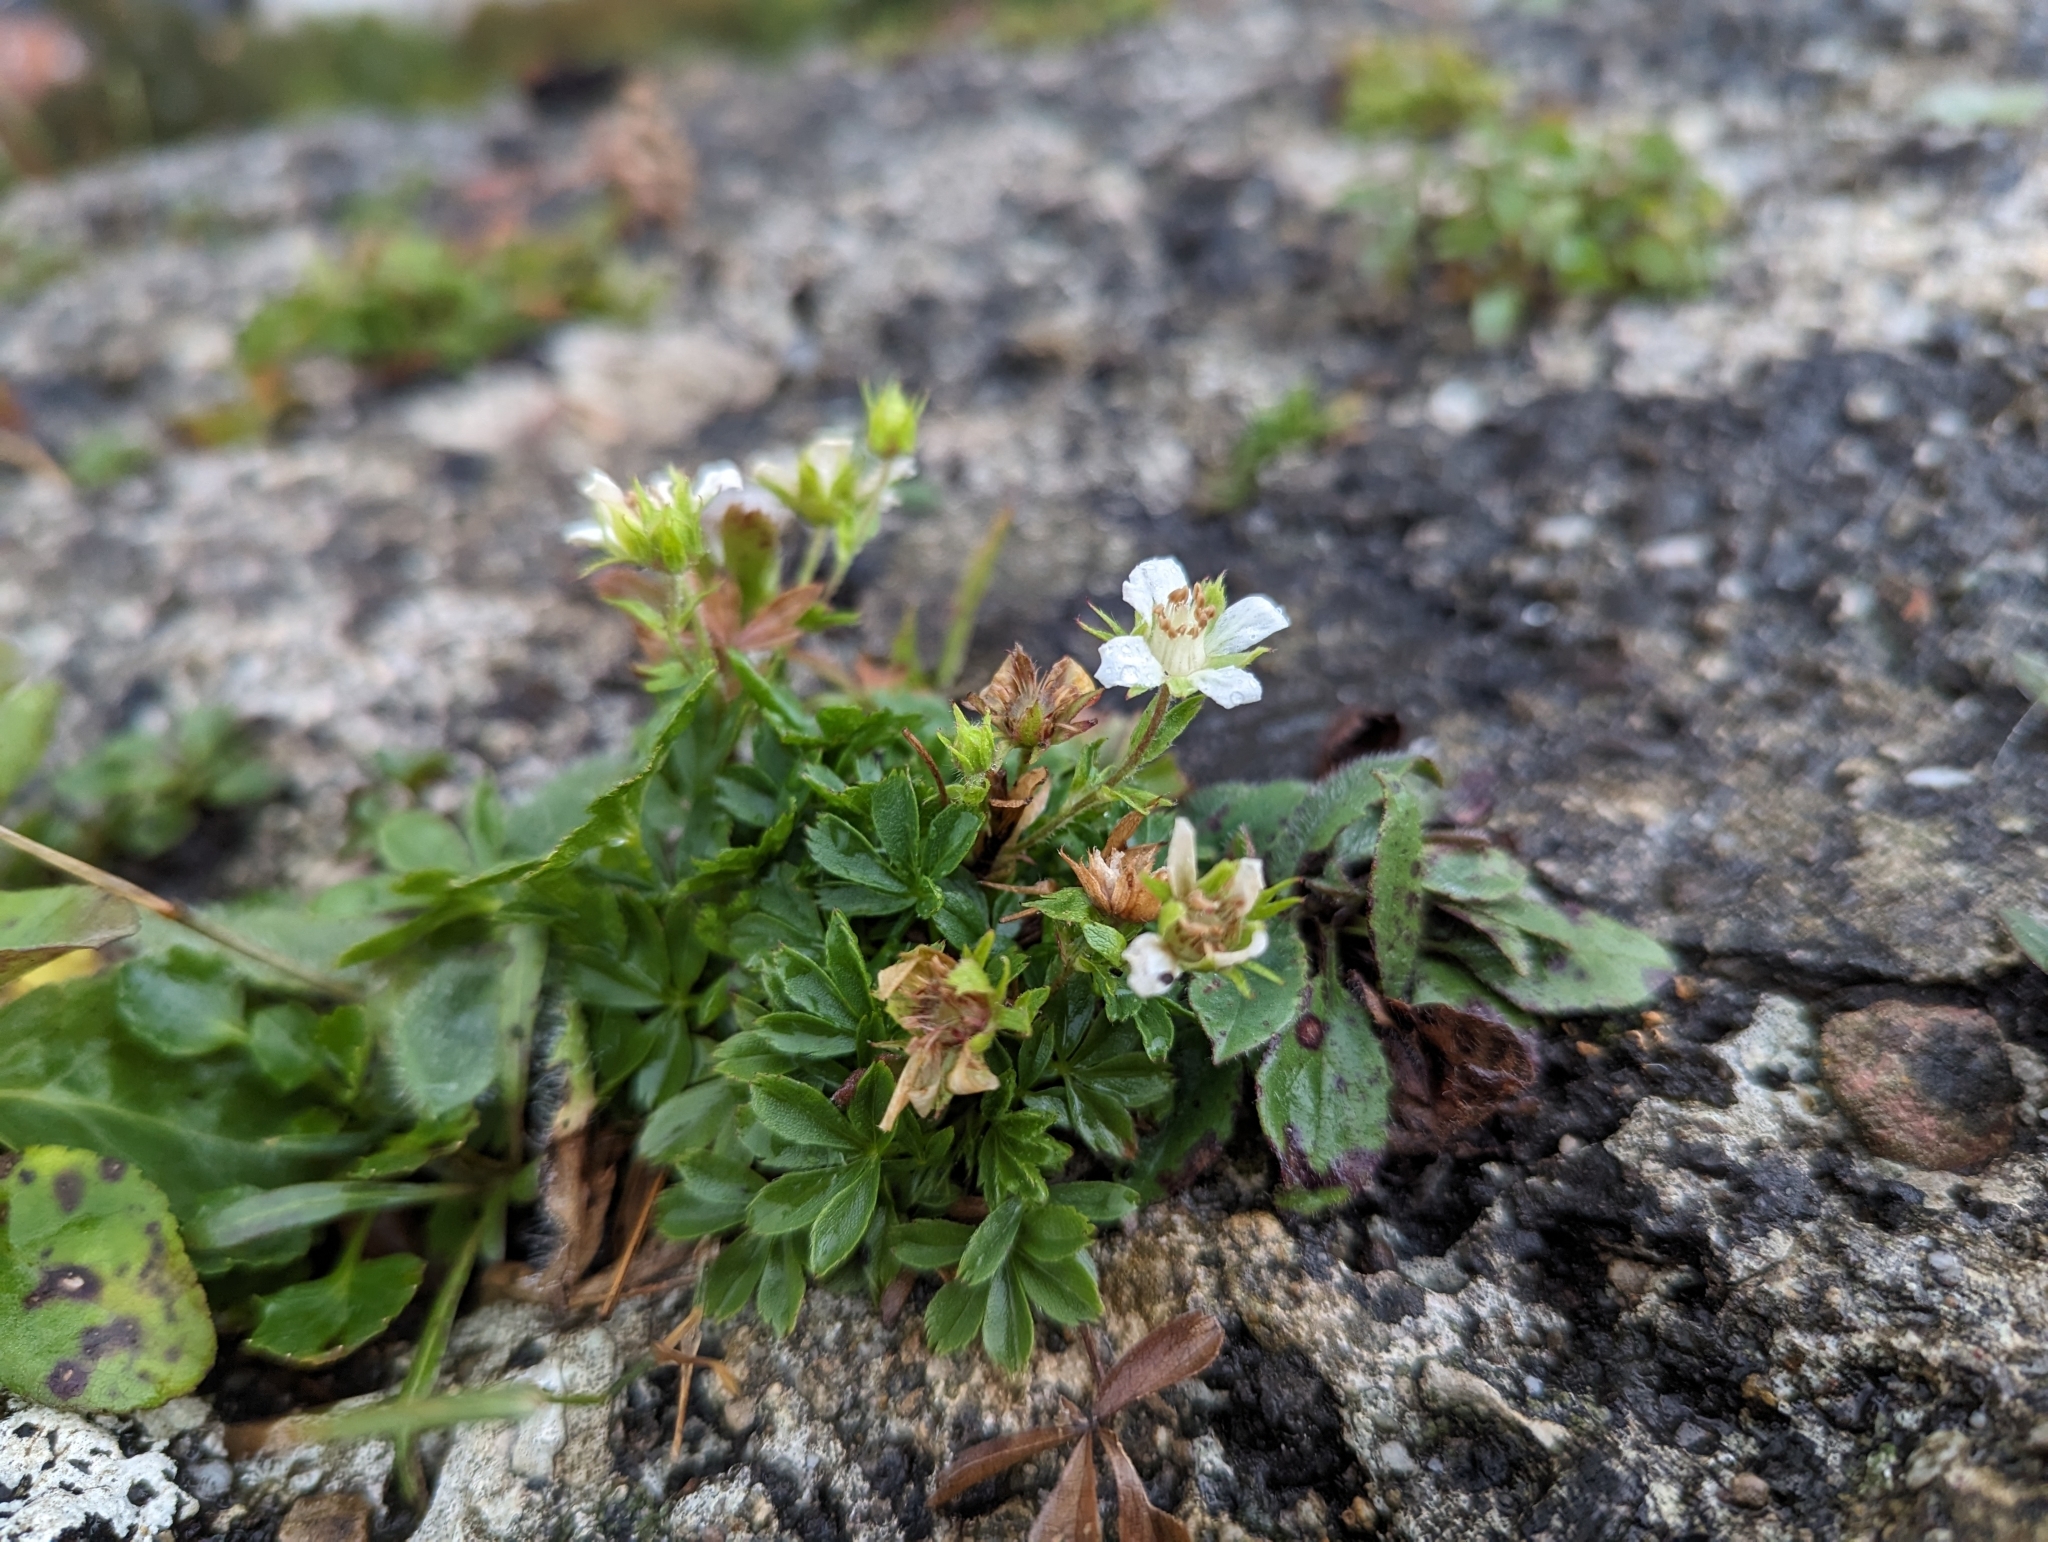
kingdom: Plantae
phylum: Tracheophyta
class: Magnoliopsida
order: Rosales
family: Rosaceae
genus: Potentilla
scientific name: Potentilla caulescens
